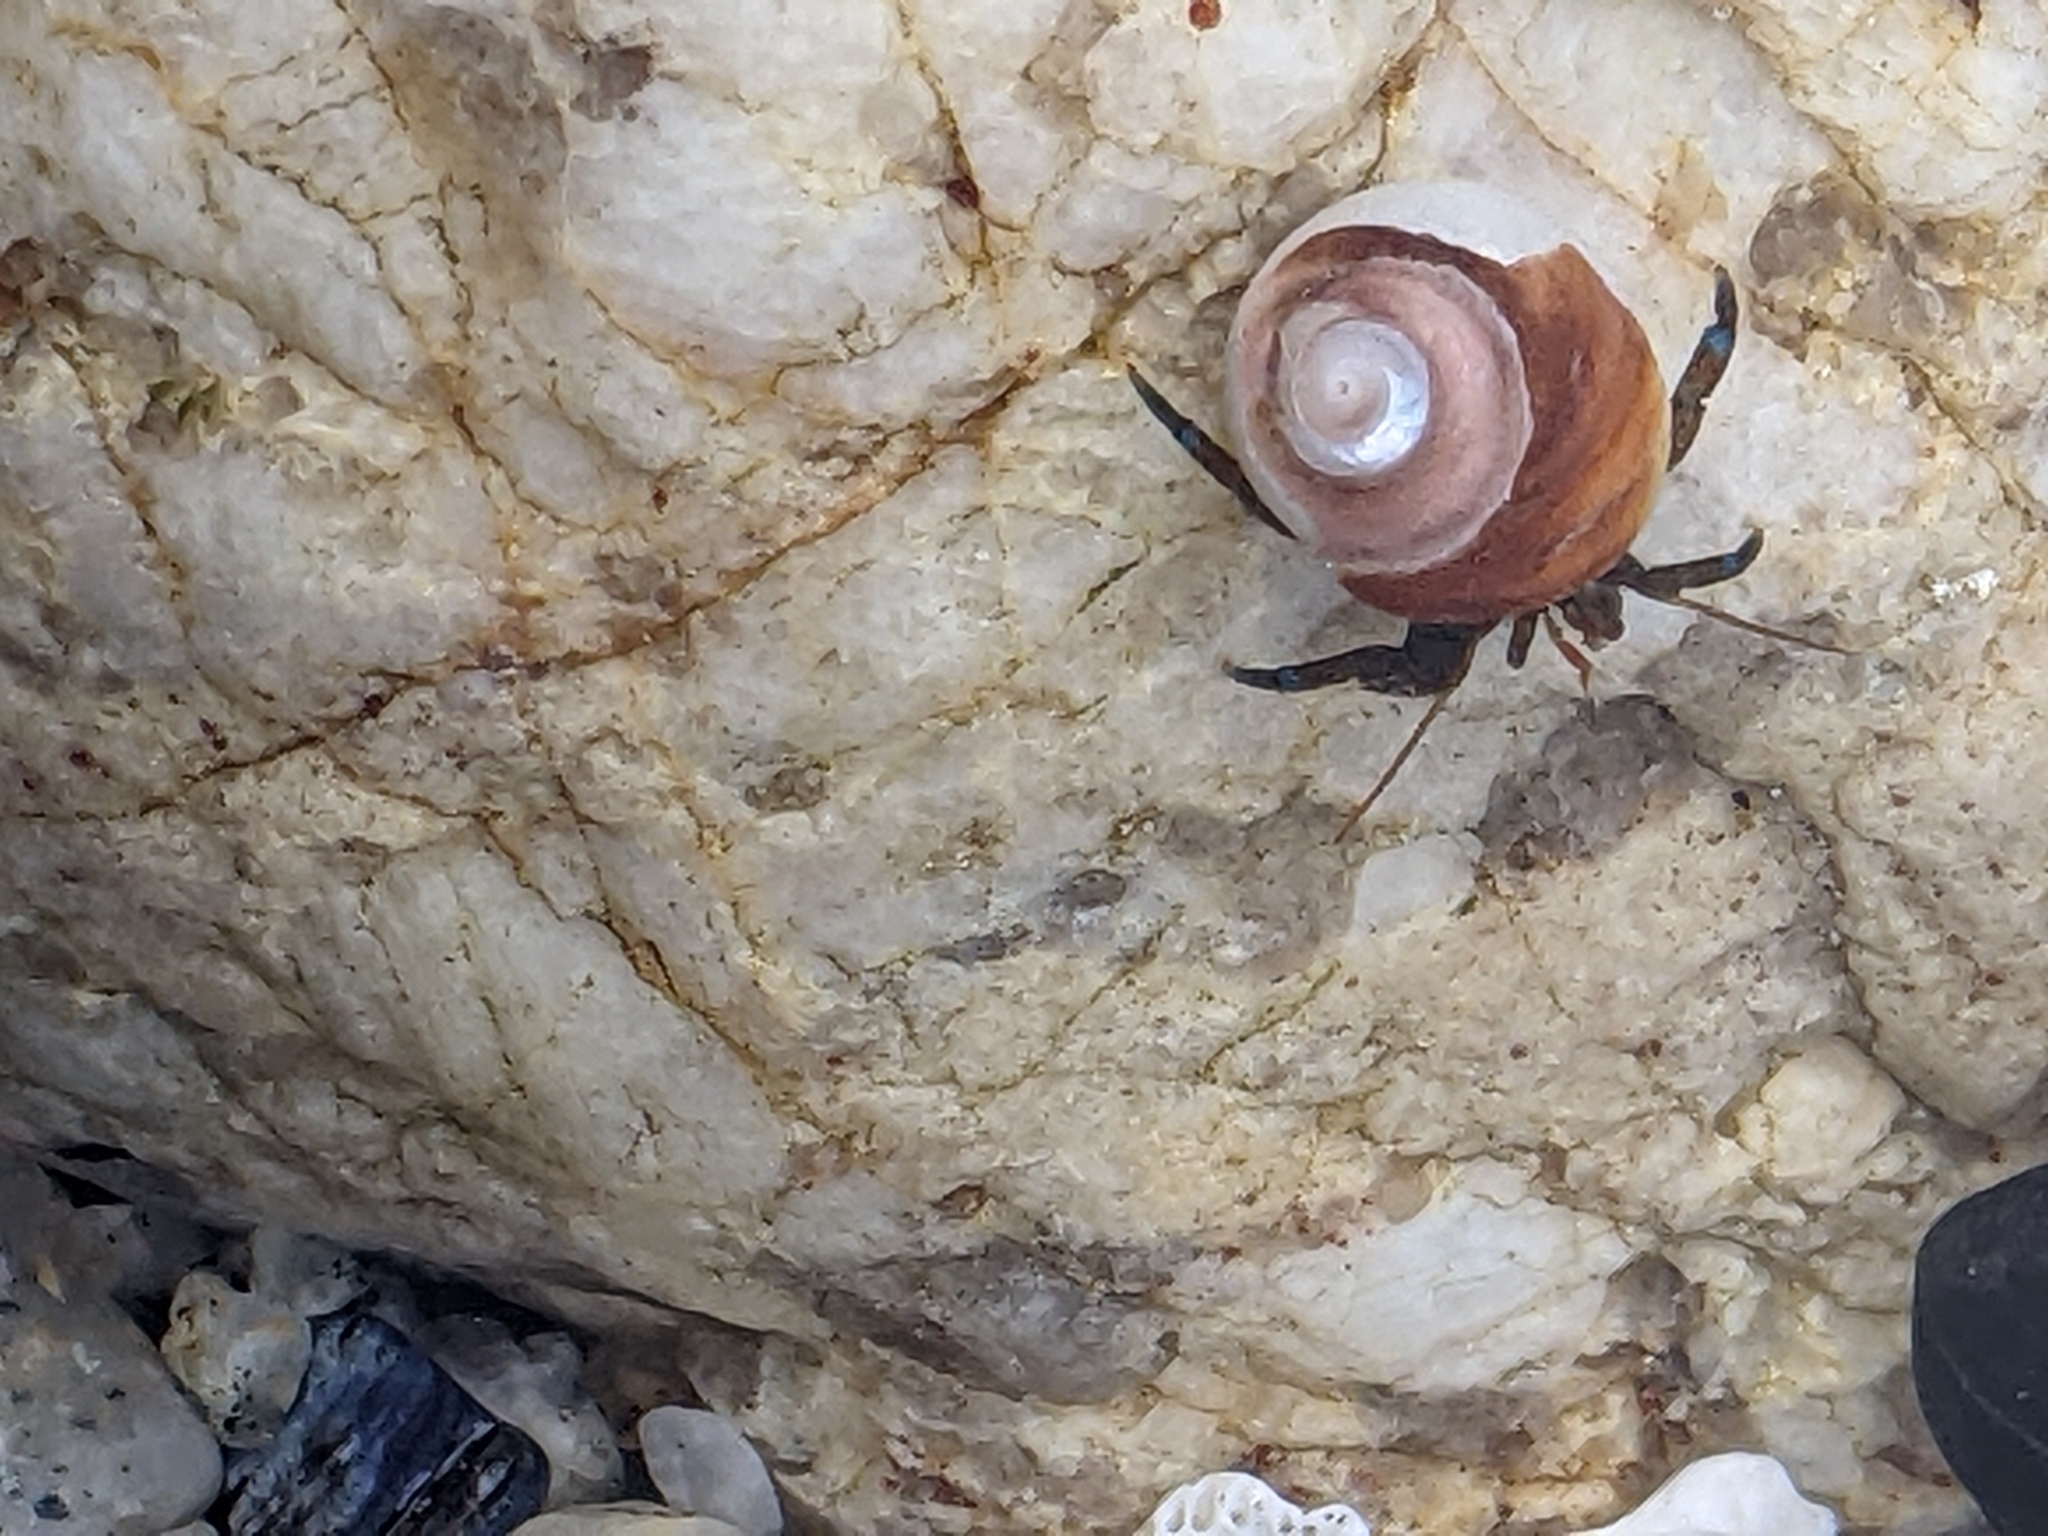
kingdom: Animalia
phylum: Arthropoda
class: Malacostraca
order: Decapoda
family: Paguridae
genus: Pagurus
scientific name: Pagurus samuelis
